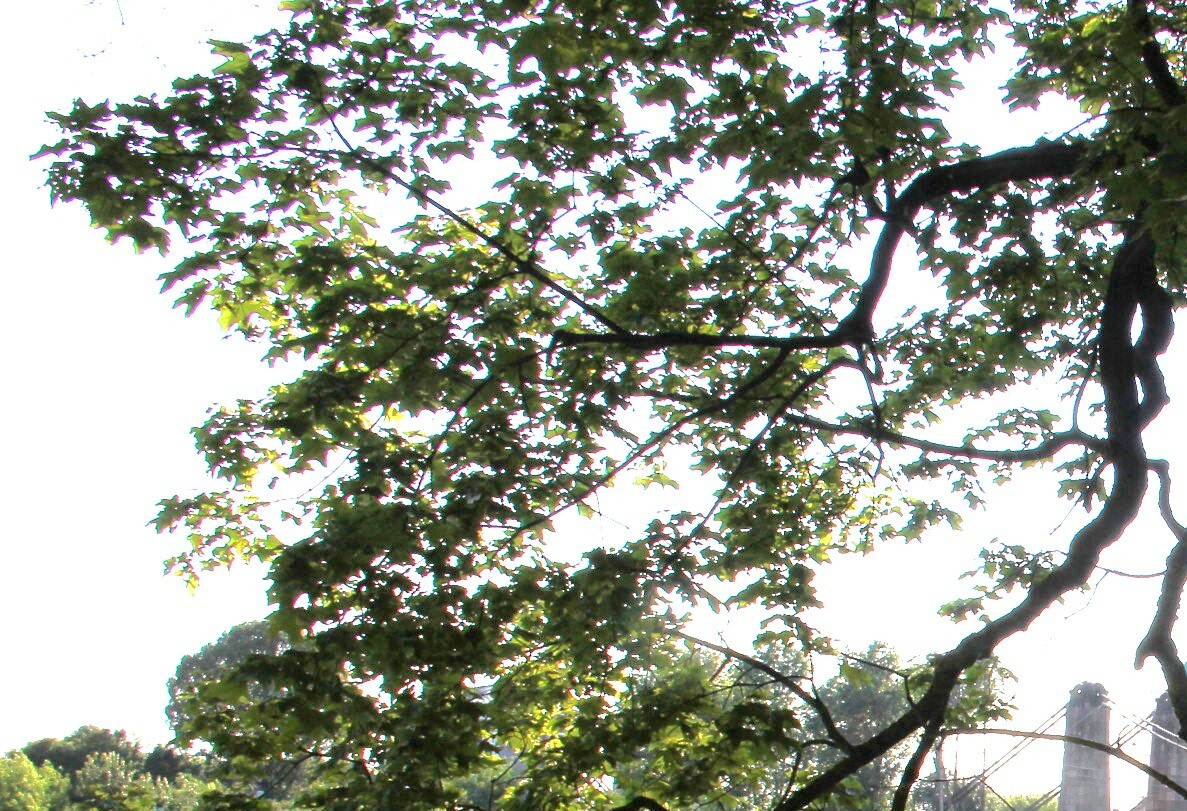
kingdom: Plantae
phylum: Tracheophyta
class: Magnoliopsida
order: Sapindales
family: Sapindaceae
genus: Acer
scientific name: Acer platanoides
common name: Norway maple
